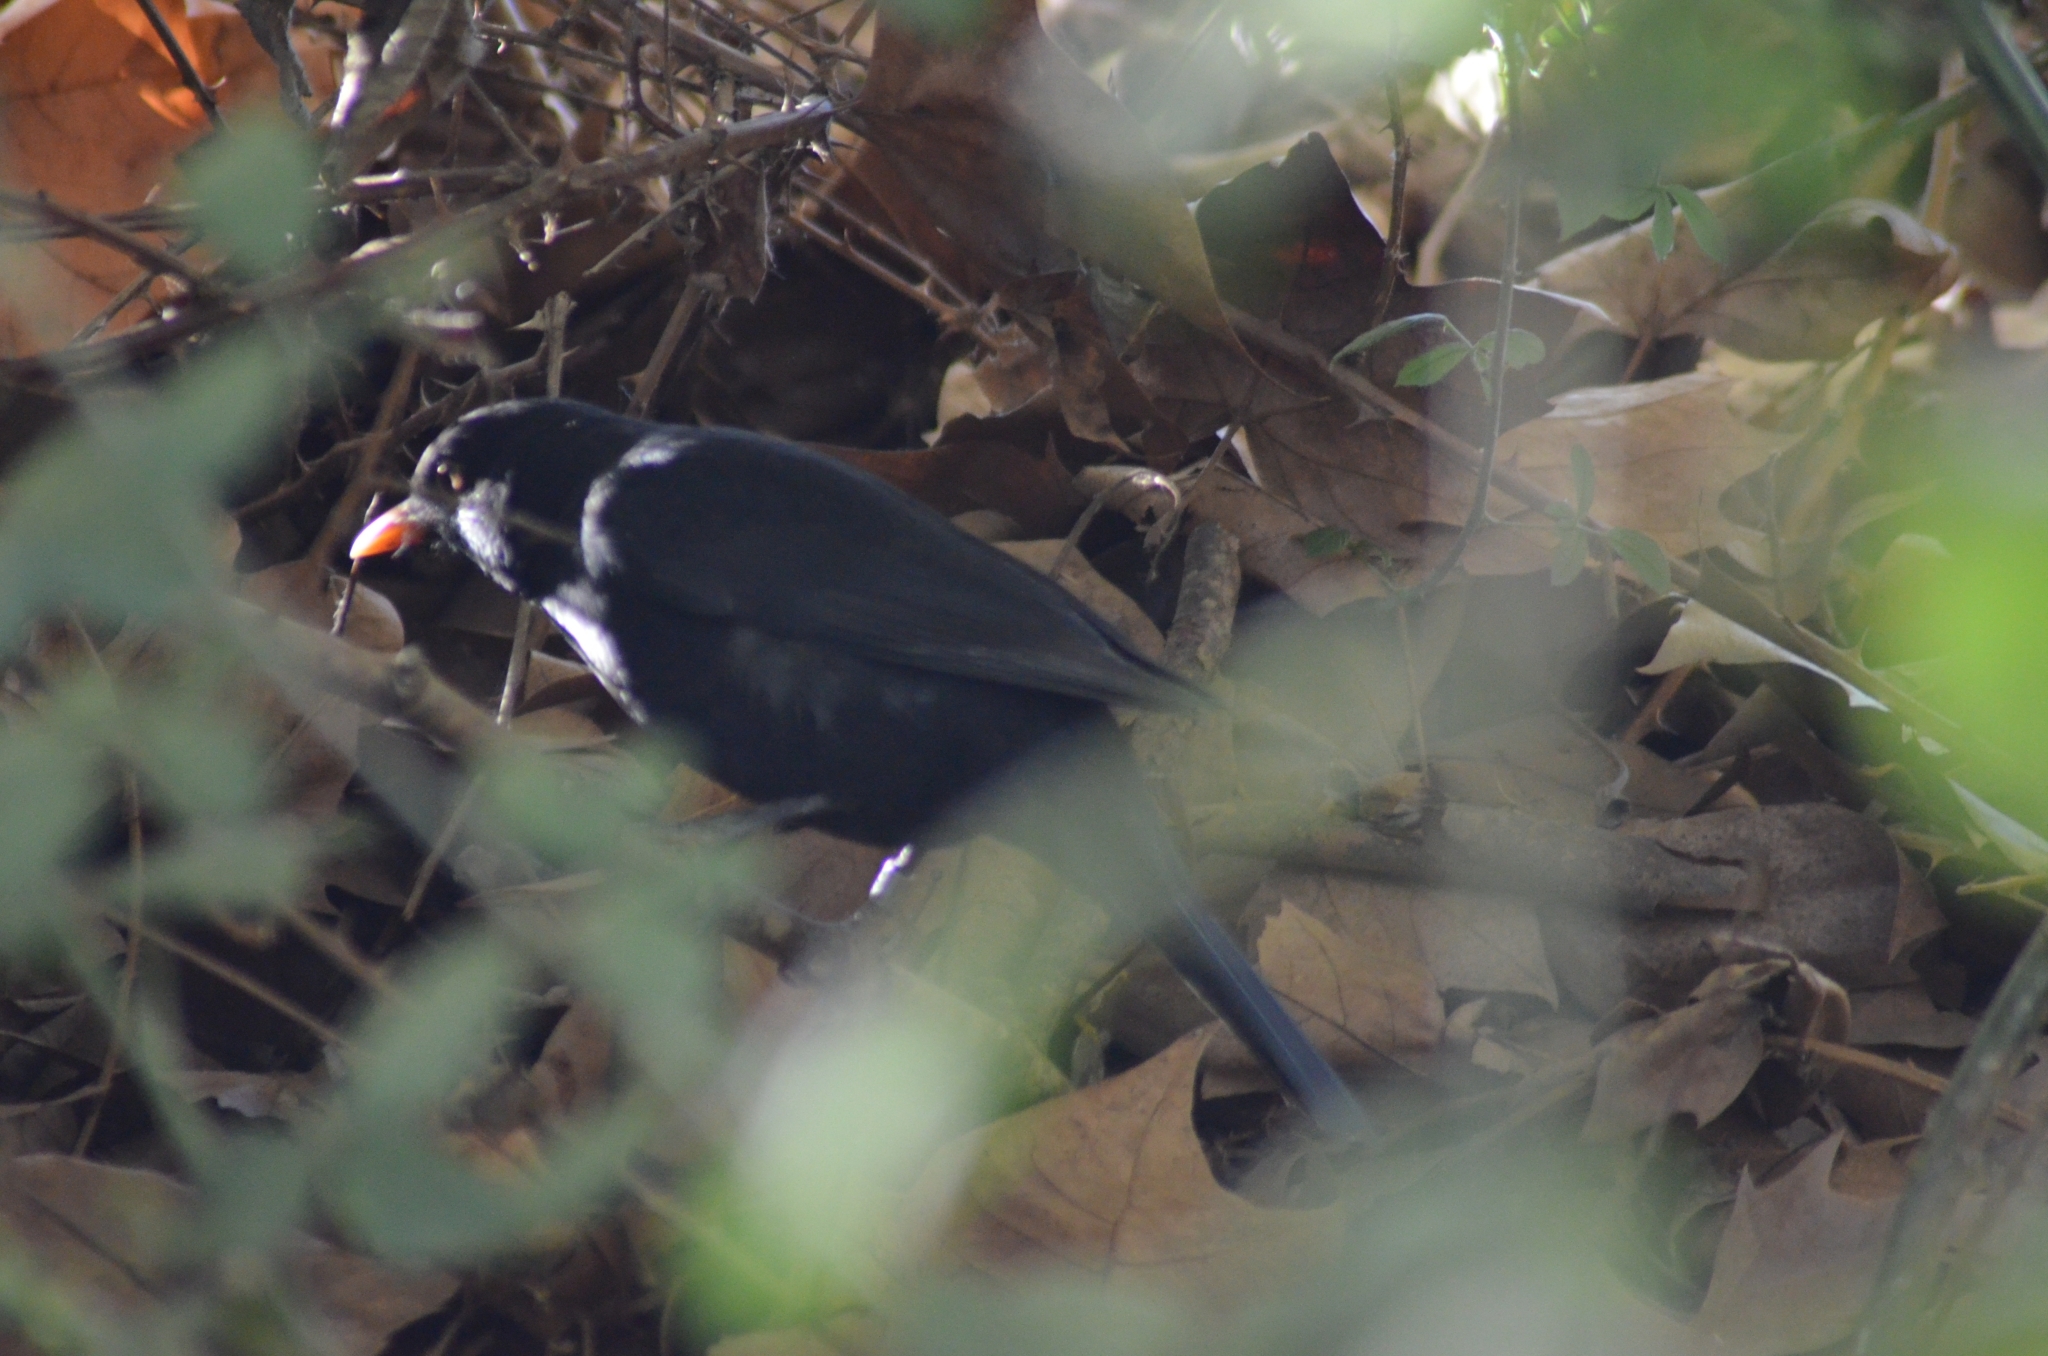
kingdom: Animalia
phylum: Chordata
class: Aves
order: Passeriformes
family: Turdidae
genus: Turdus
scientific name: Turdus merula
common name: Common blackbird
